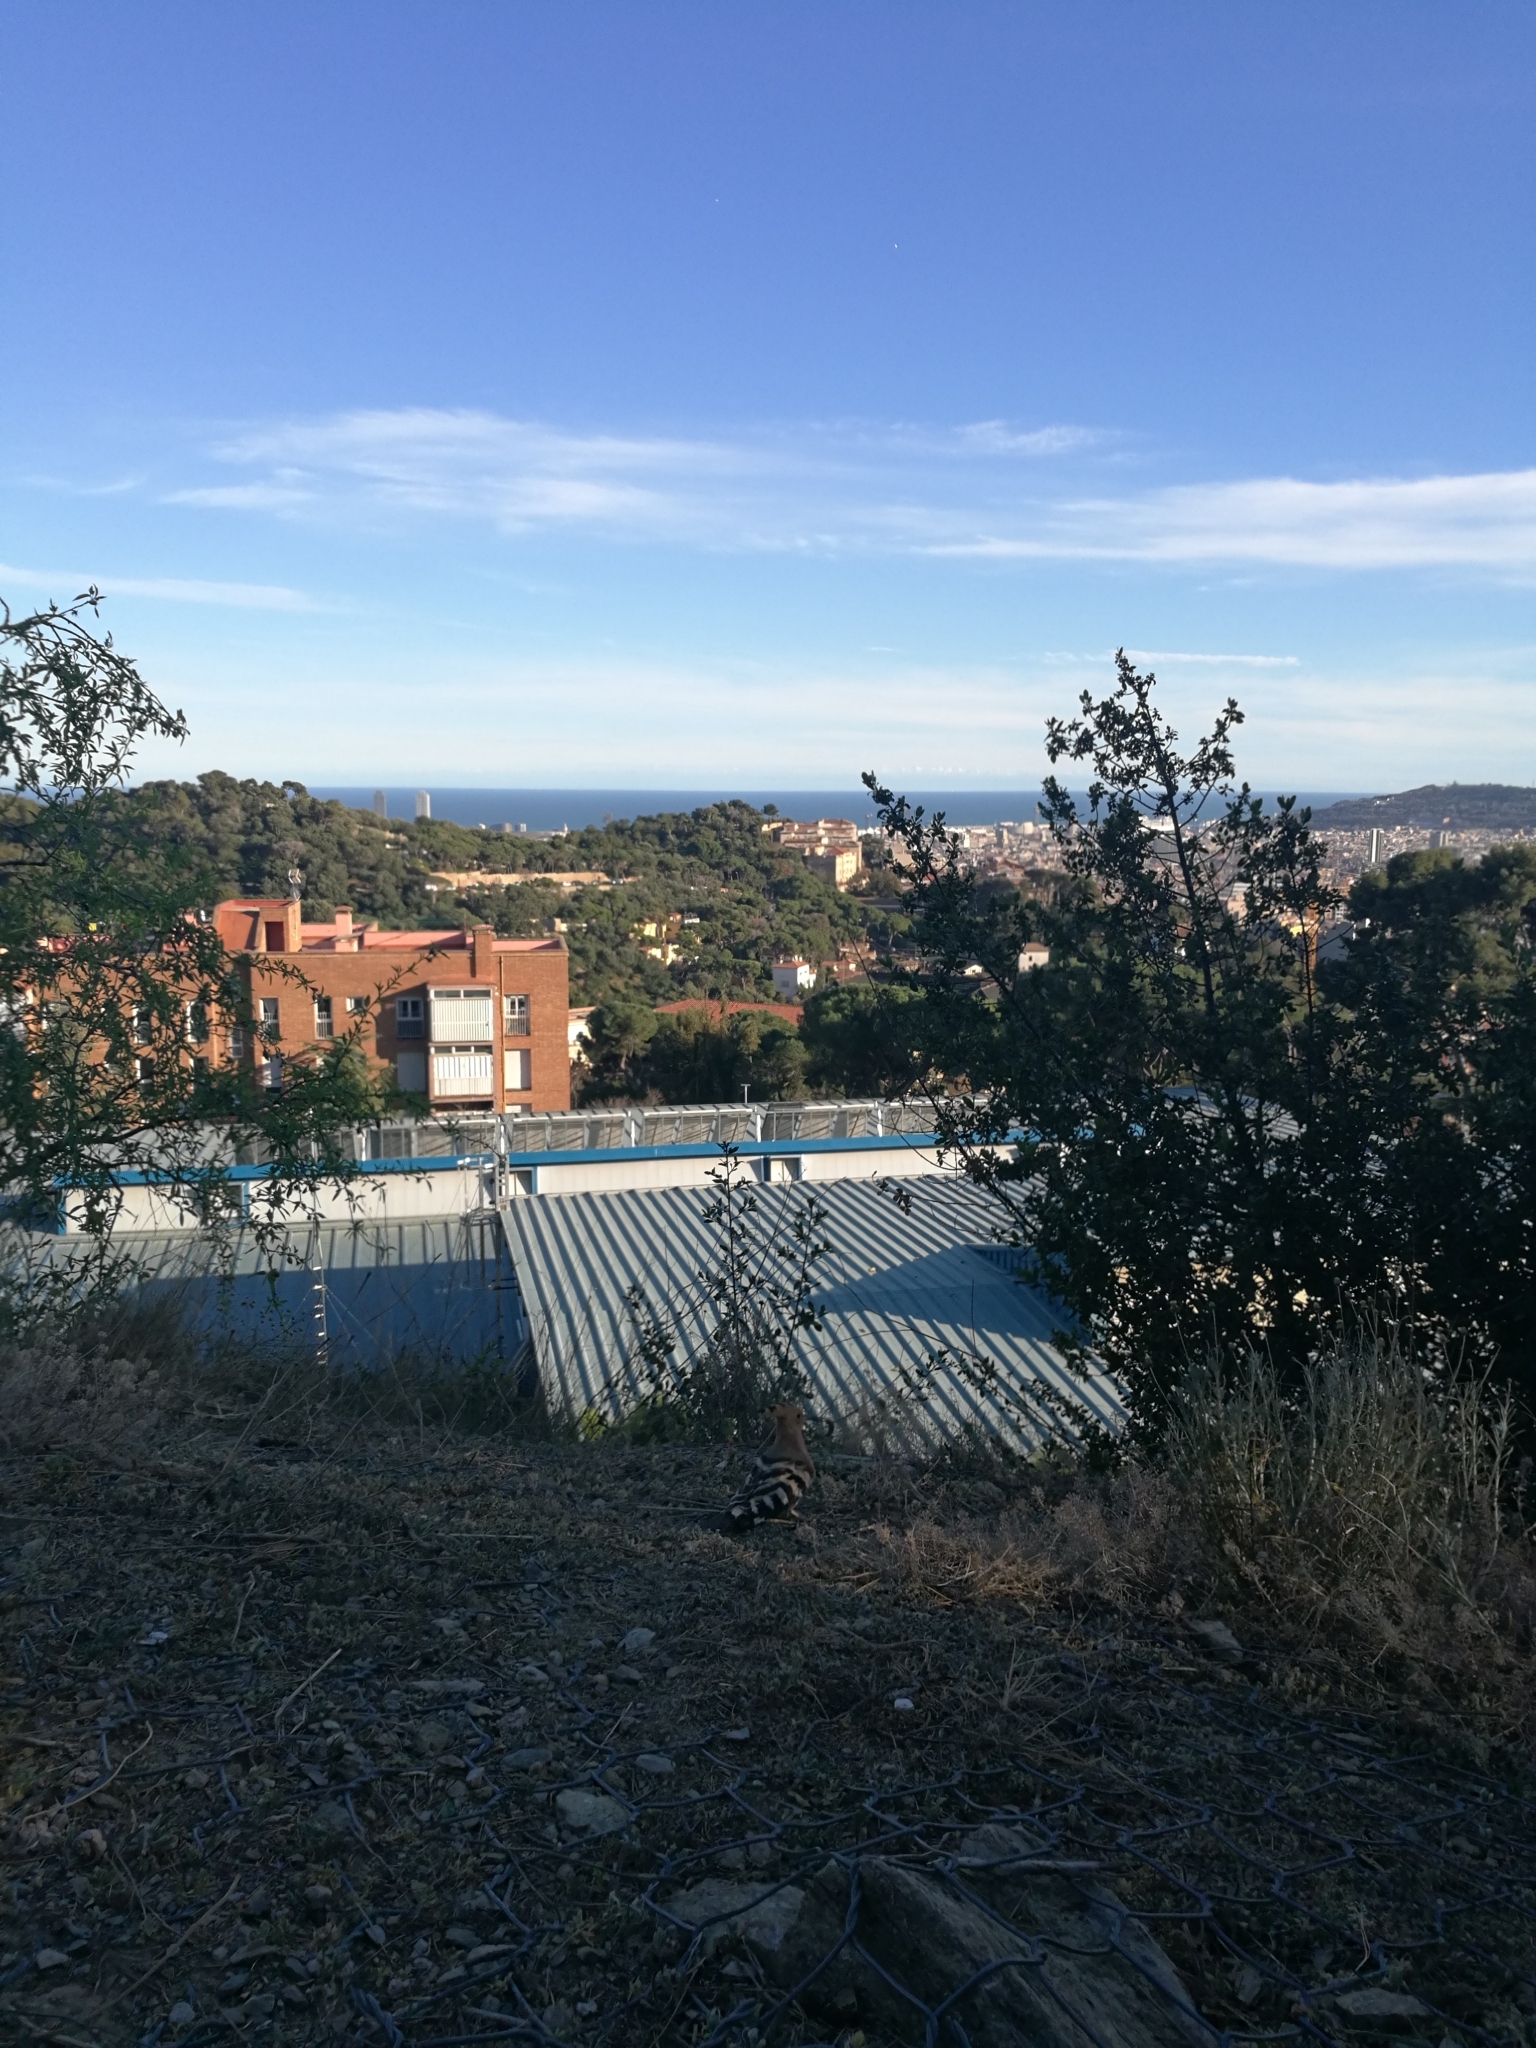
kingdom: Animalia
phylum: Chordata
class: Aves
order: Bucerotiformes
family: Upupidae
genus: Upupa
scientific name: Upupa epops
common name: Eurasian hoopoe
